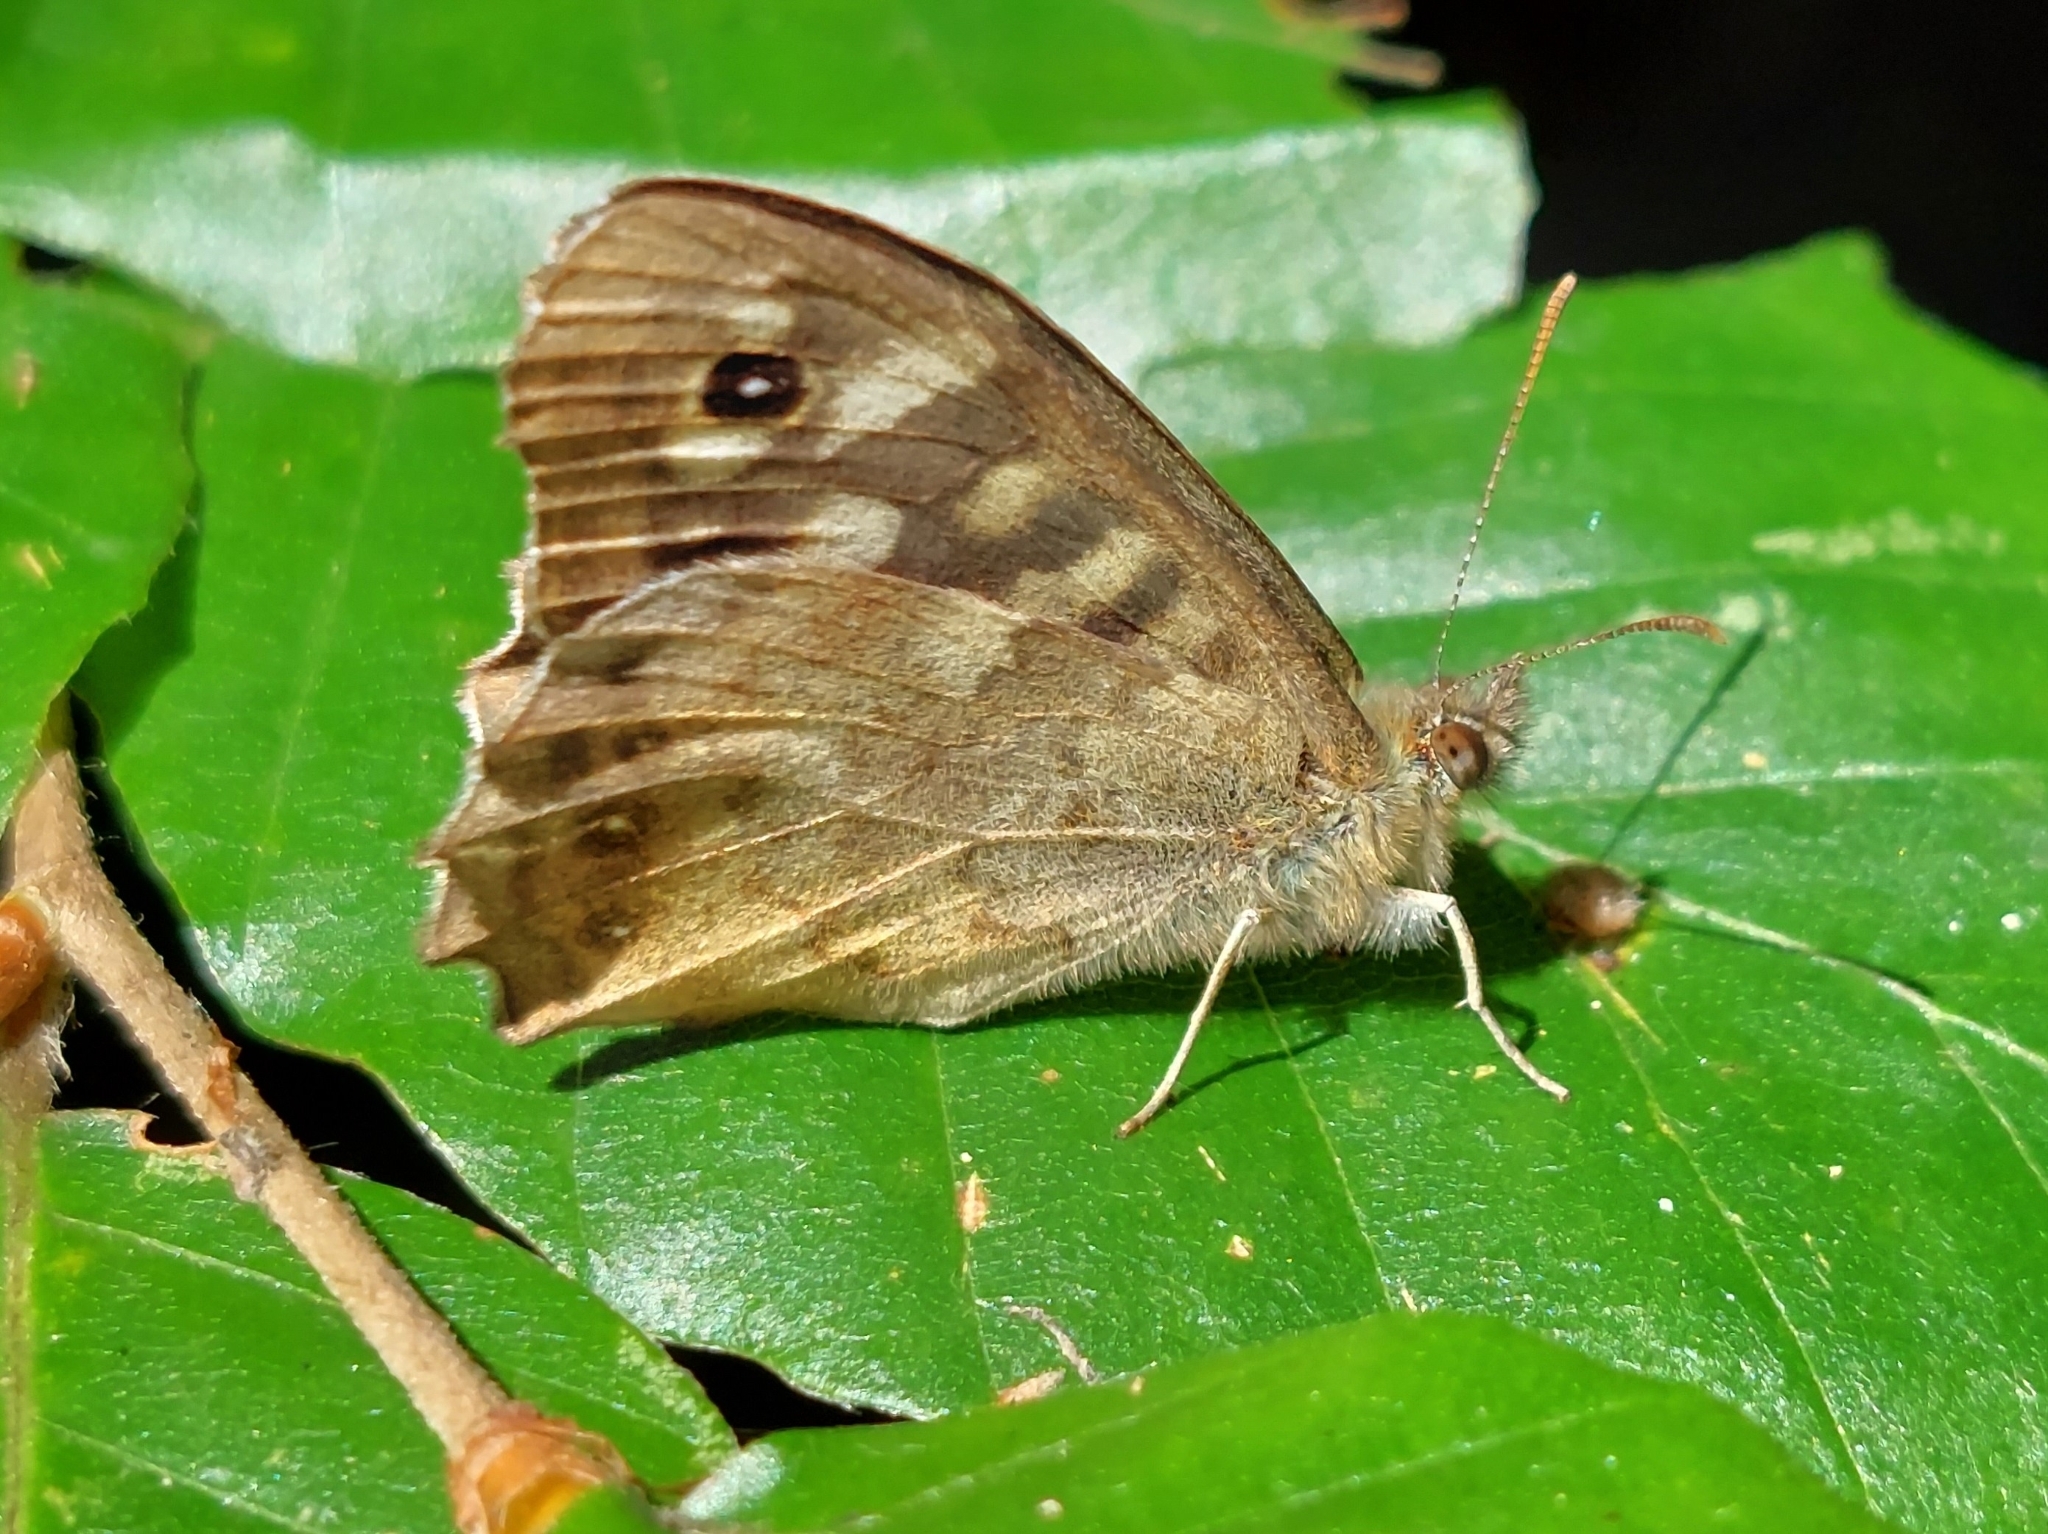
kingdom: Animalia
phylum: Arthropoda
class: Insecta
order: Lepidoptera
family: Nymphalidae
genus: Pararge
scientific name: Pararge aegeria
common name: Speckled wood
